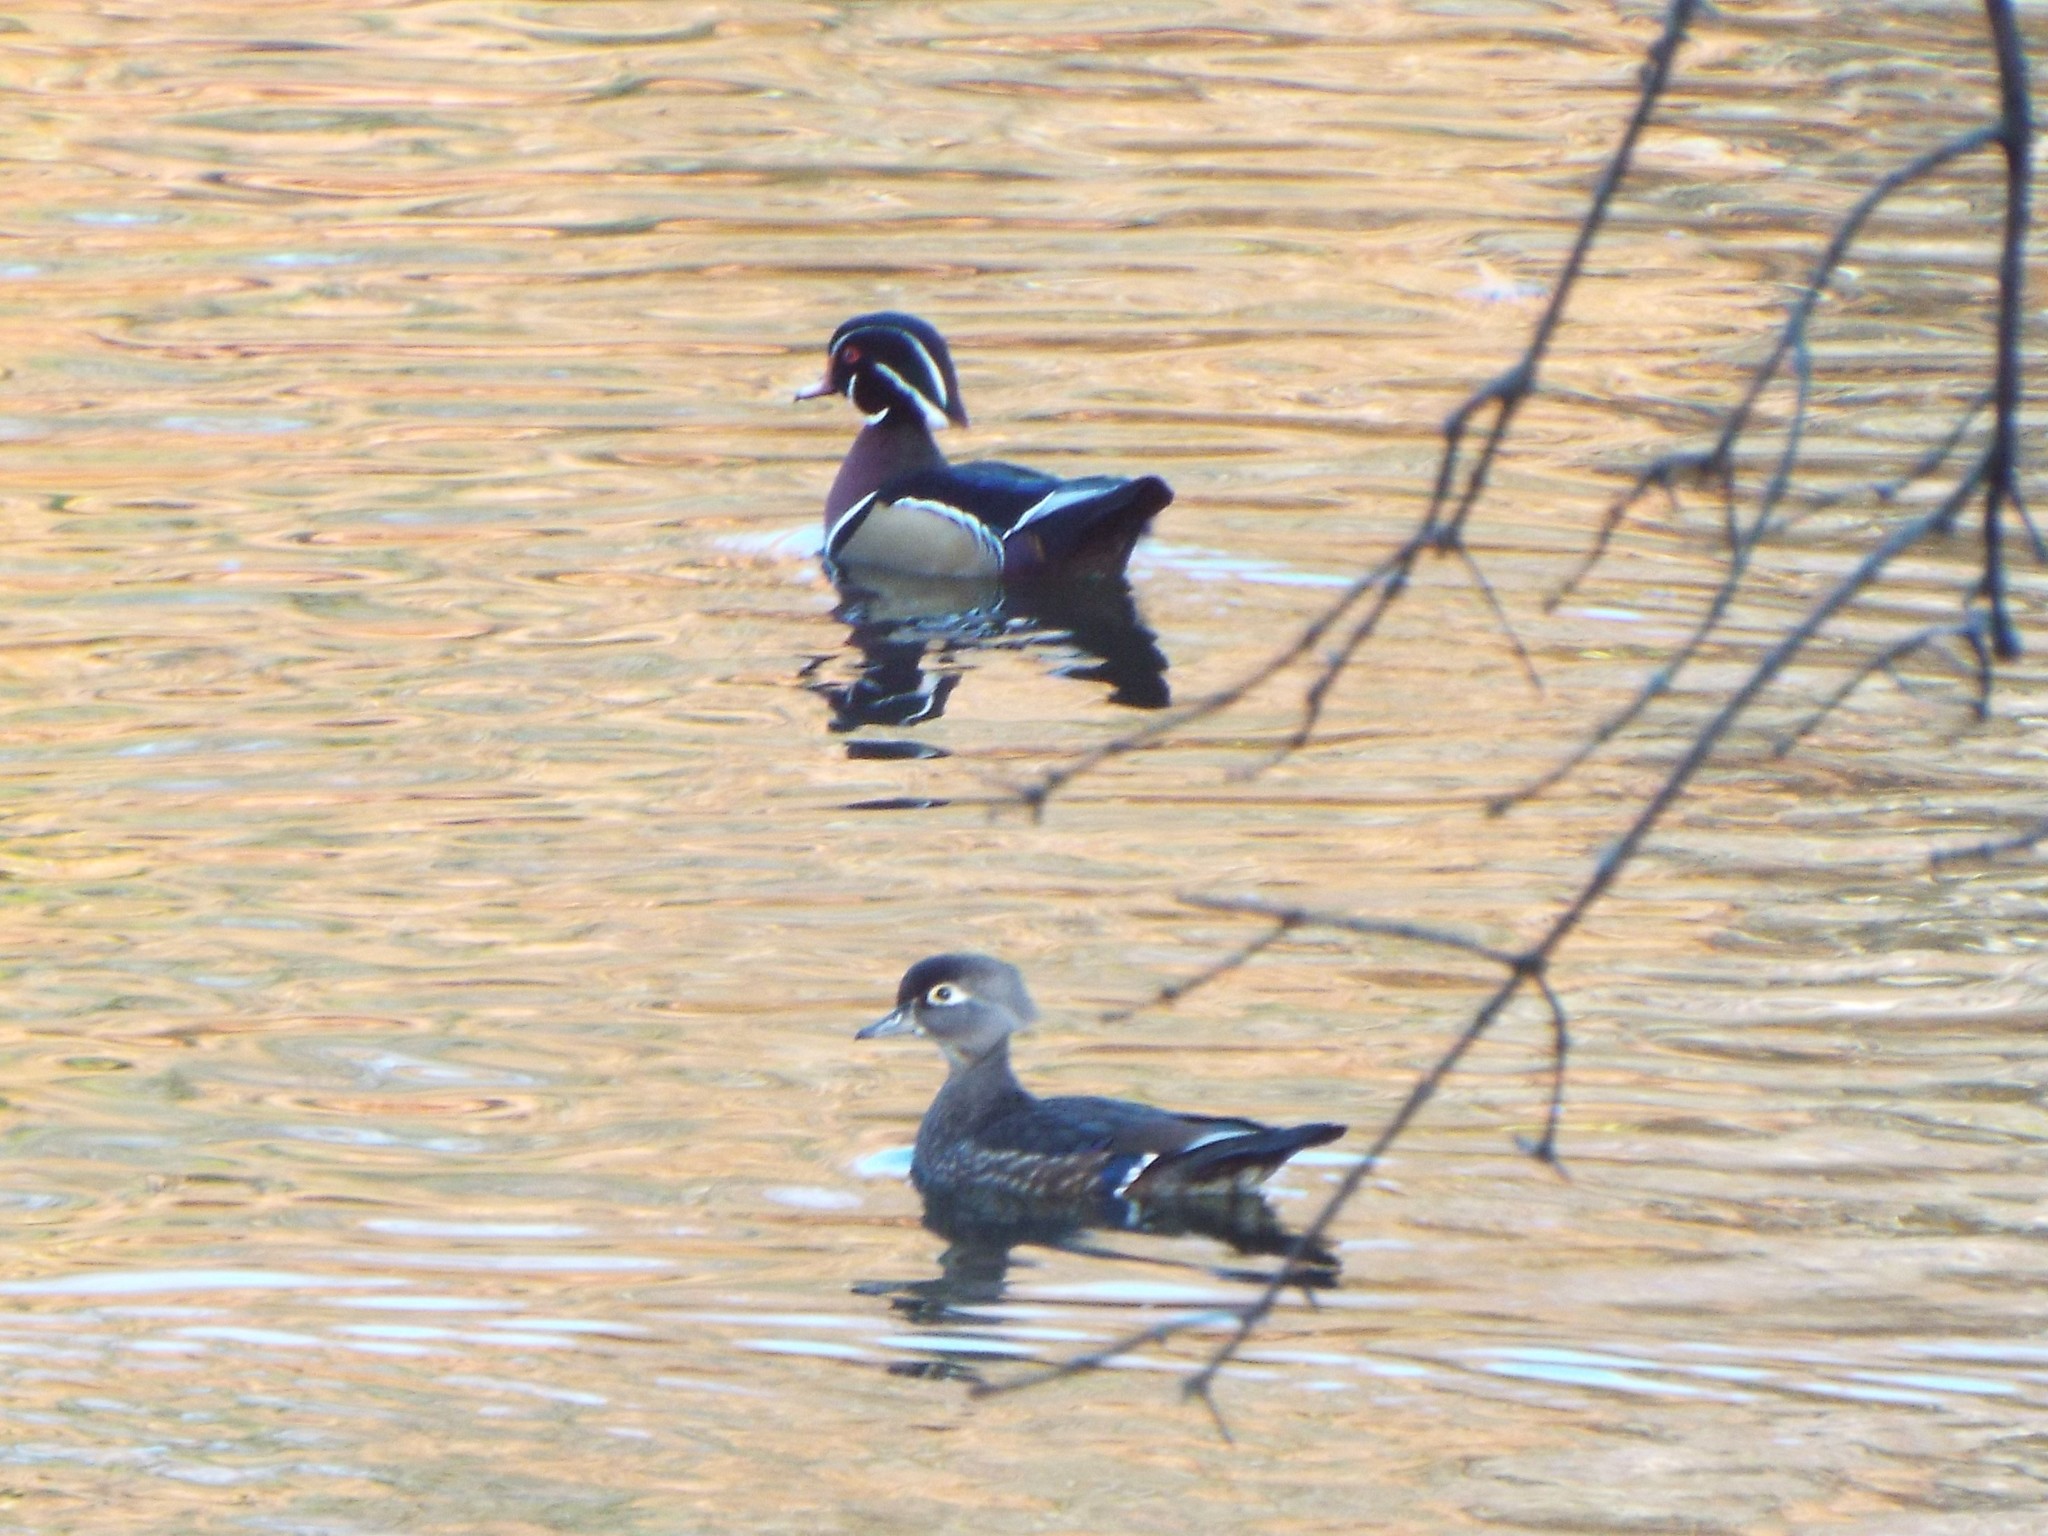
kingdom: Animalia
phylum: Chordata
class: Aves
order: Anseriformes
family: Anatidae
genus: Aix
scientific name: Aix sponsa
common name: Wood duck
